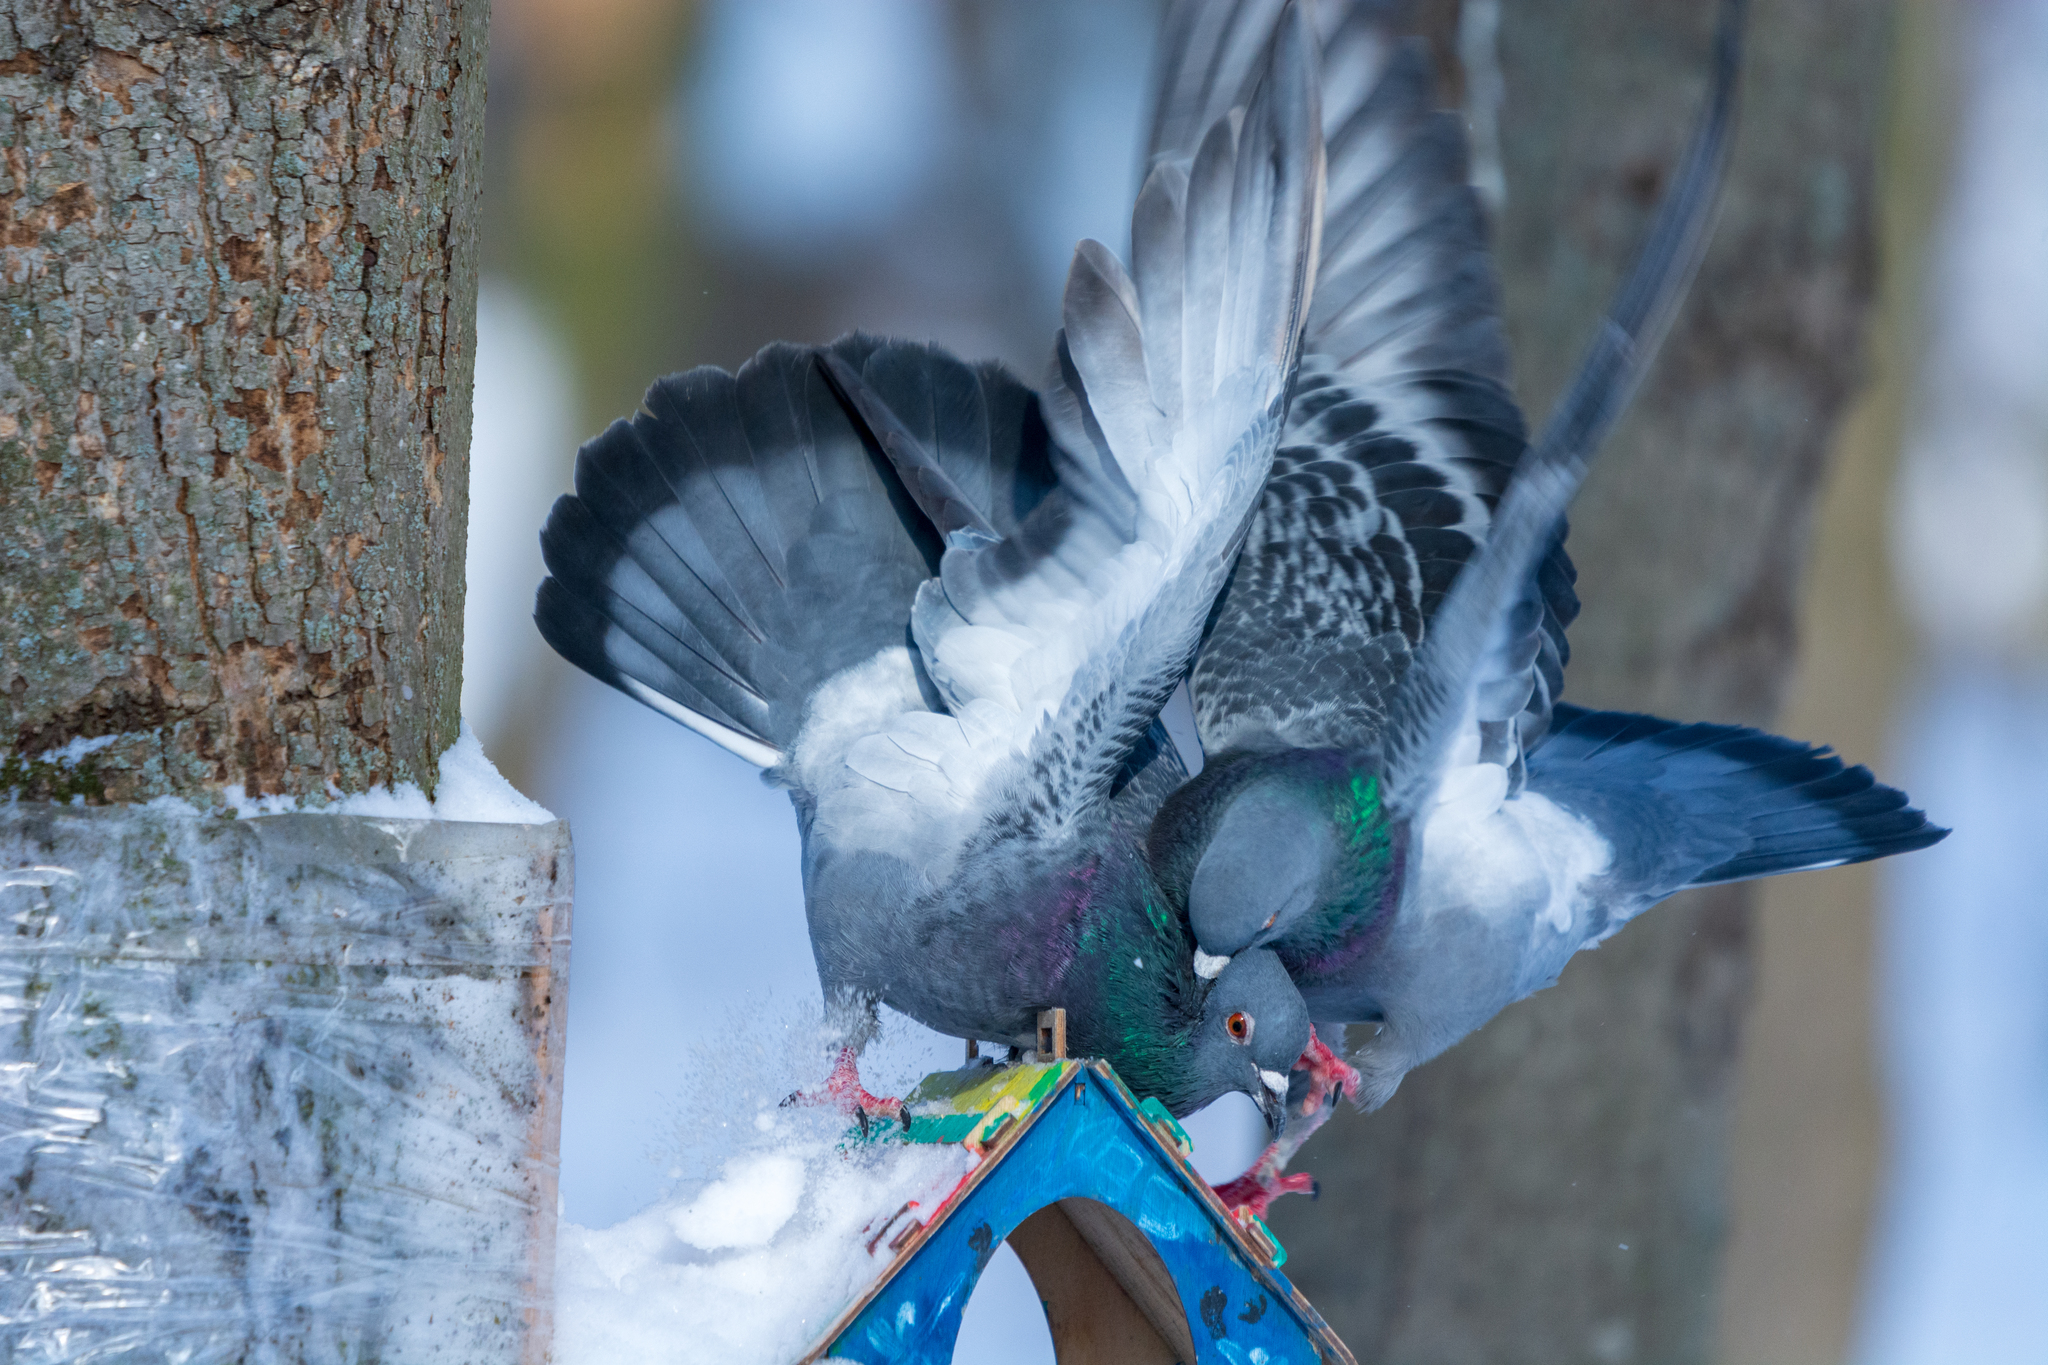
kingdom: Animalia
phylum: Chordata
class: Aves
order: Columbiformes
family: Columbidae
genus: Columba
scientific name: Columba livia
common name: Rock pigeon
